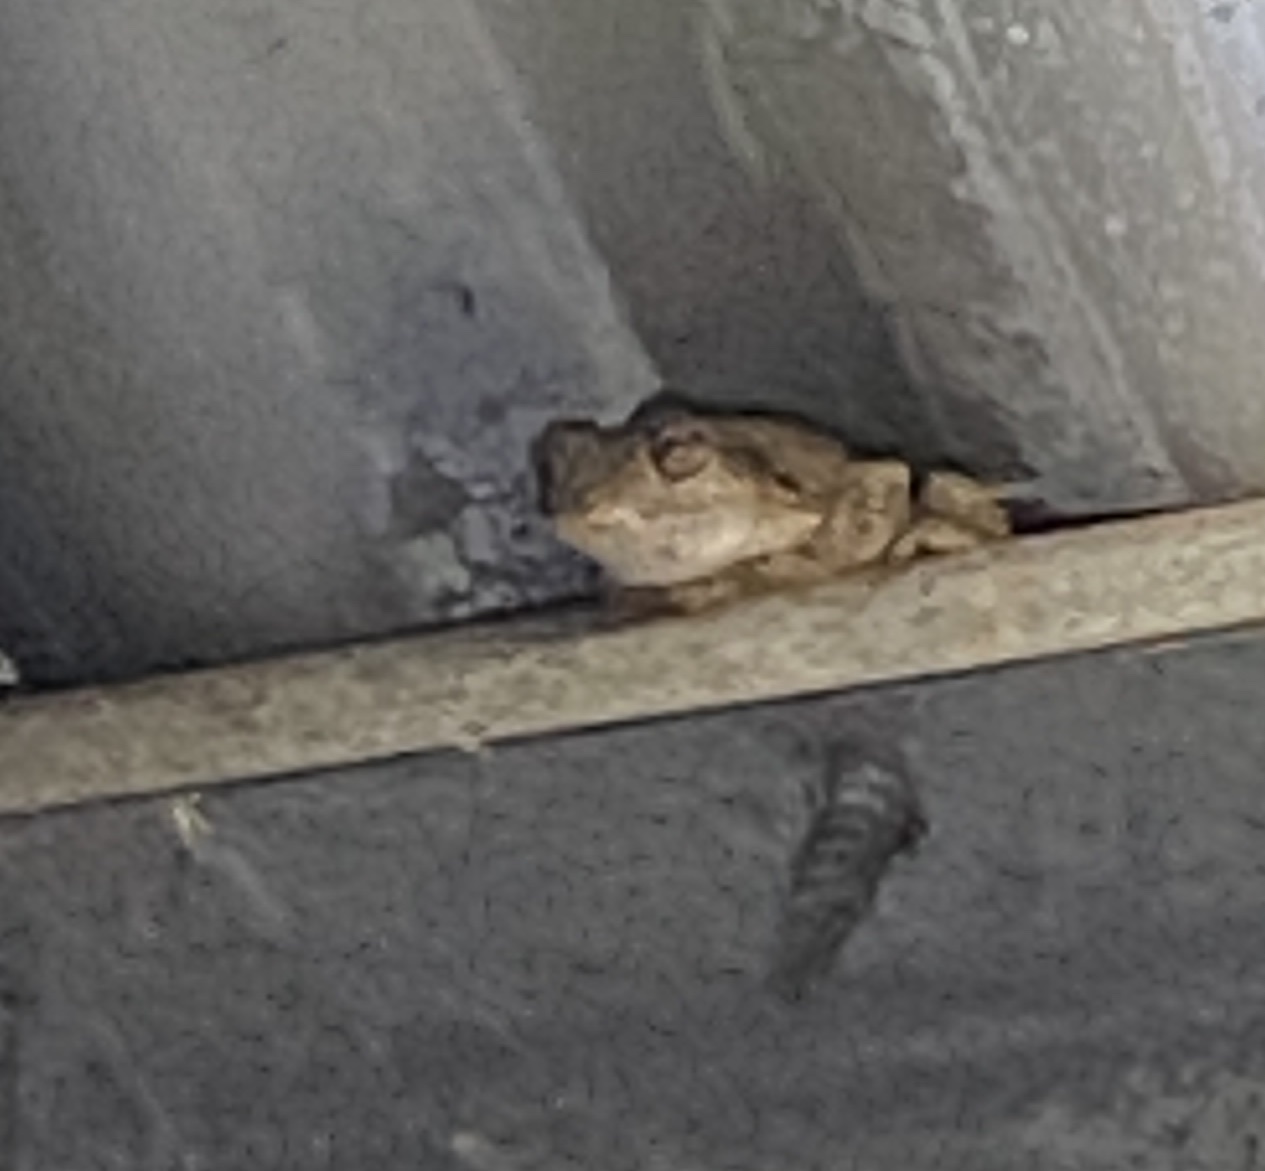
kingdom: Animalia
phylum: Chordata
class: Amphibia
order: Anura
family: Pelodryadidae
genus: Litoria
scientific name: Litoria
